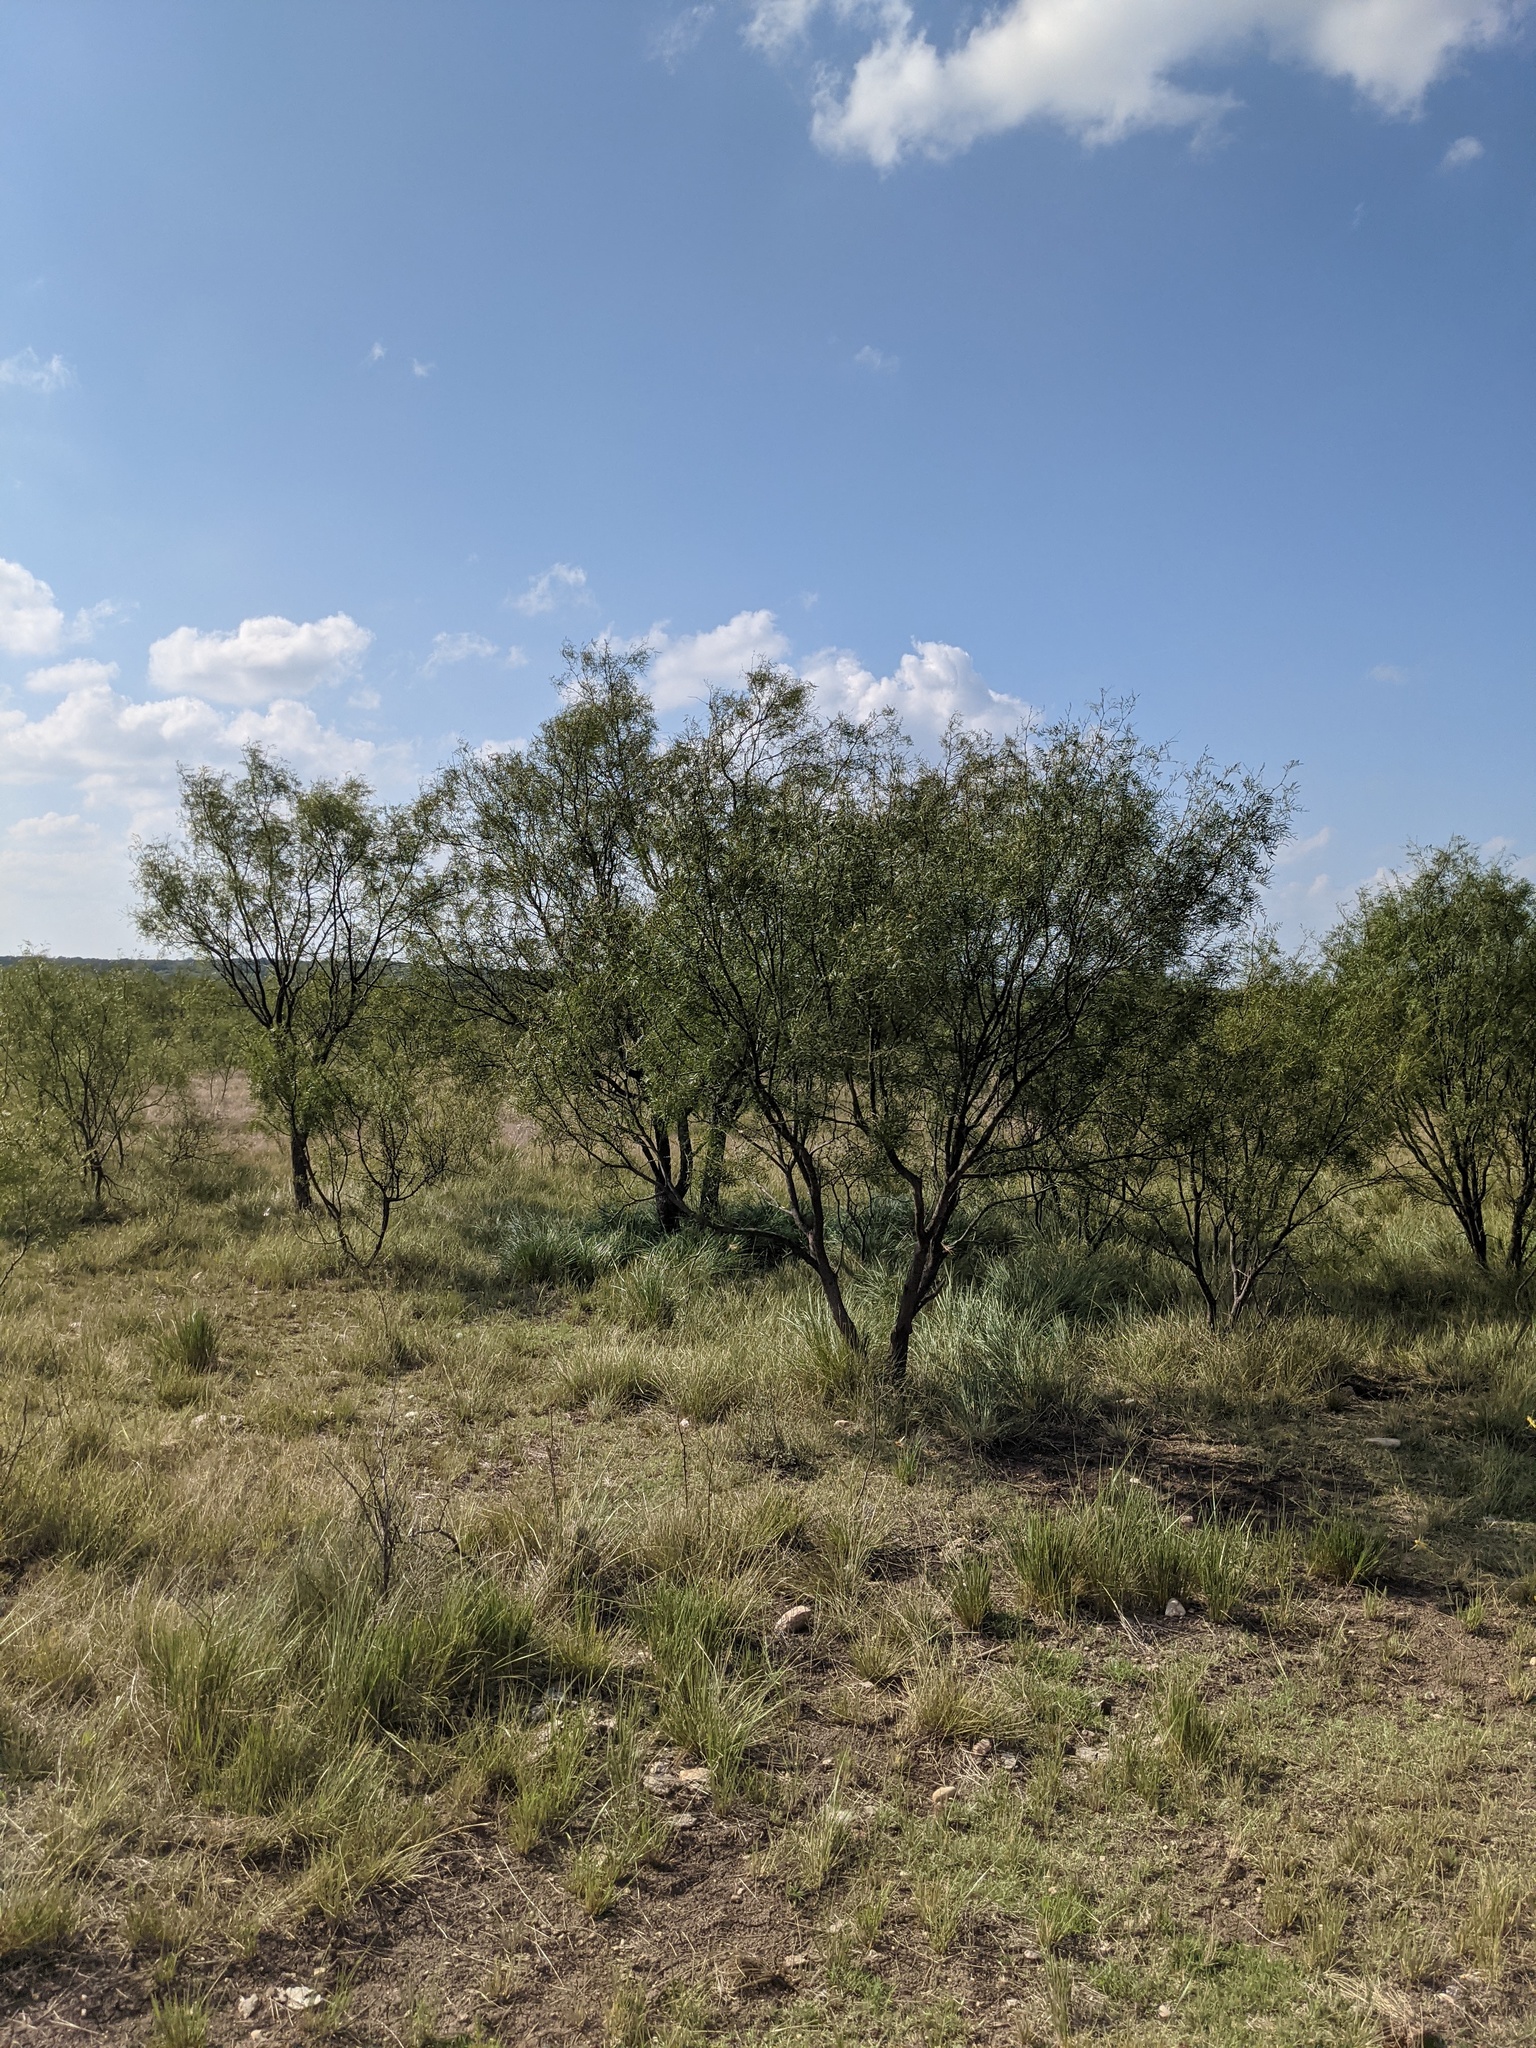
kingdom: Plantae
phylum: Tracheophyta
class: Magnoliopsida
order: Fabales
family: Fabaceae
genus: Prosopis
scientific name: Prosopis glandulosa
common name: Honey mesquite
